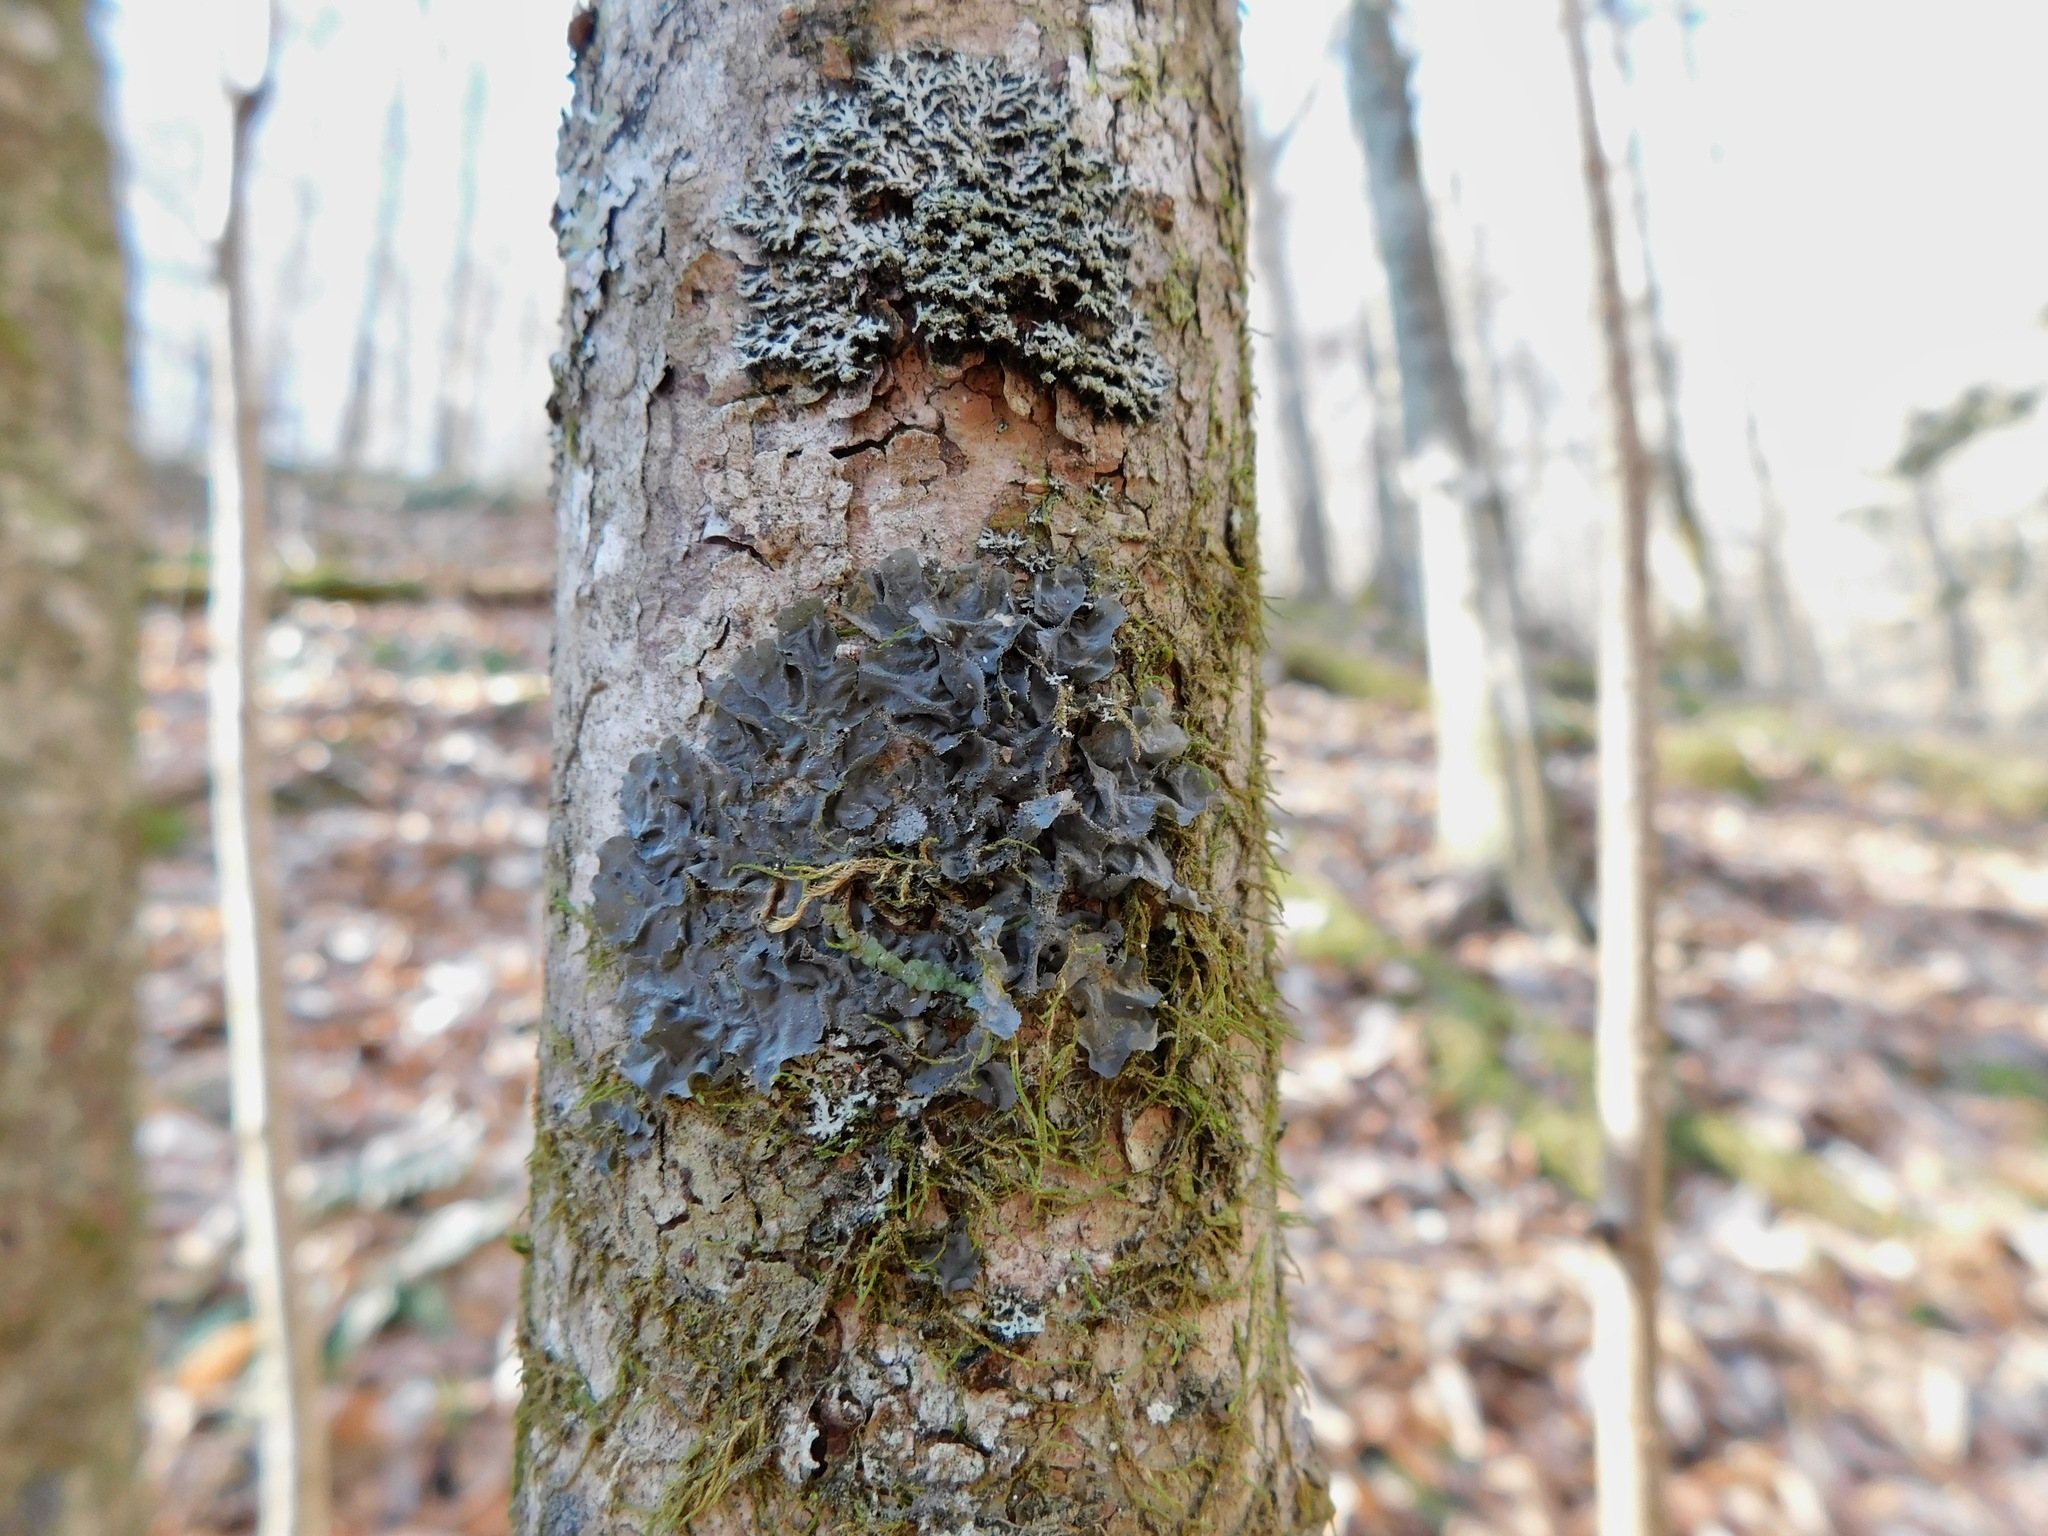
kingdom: Fungi
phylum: Ascomycota
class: Lecanoromycetes
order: Peltigerales
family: Collemataceae
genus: Collema
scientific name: Collema subflaccidum
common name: Tree jelly
